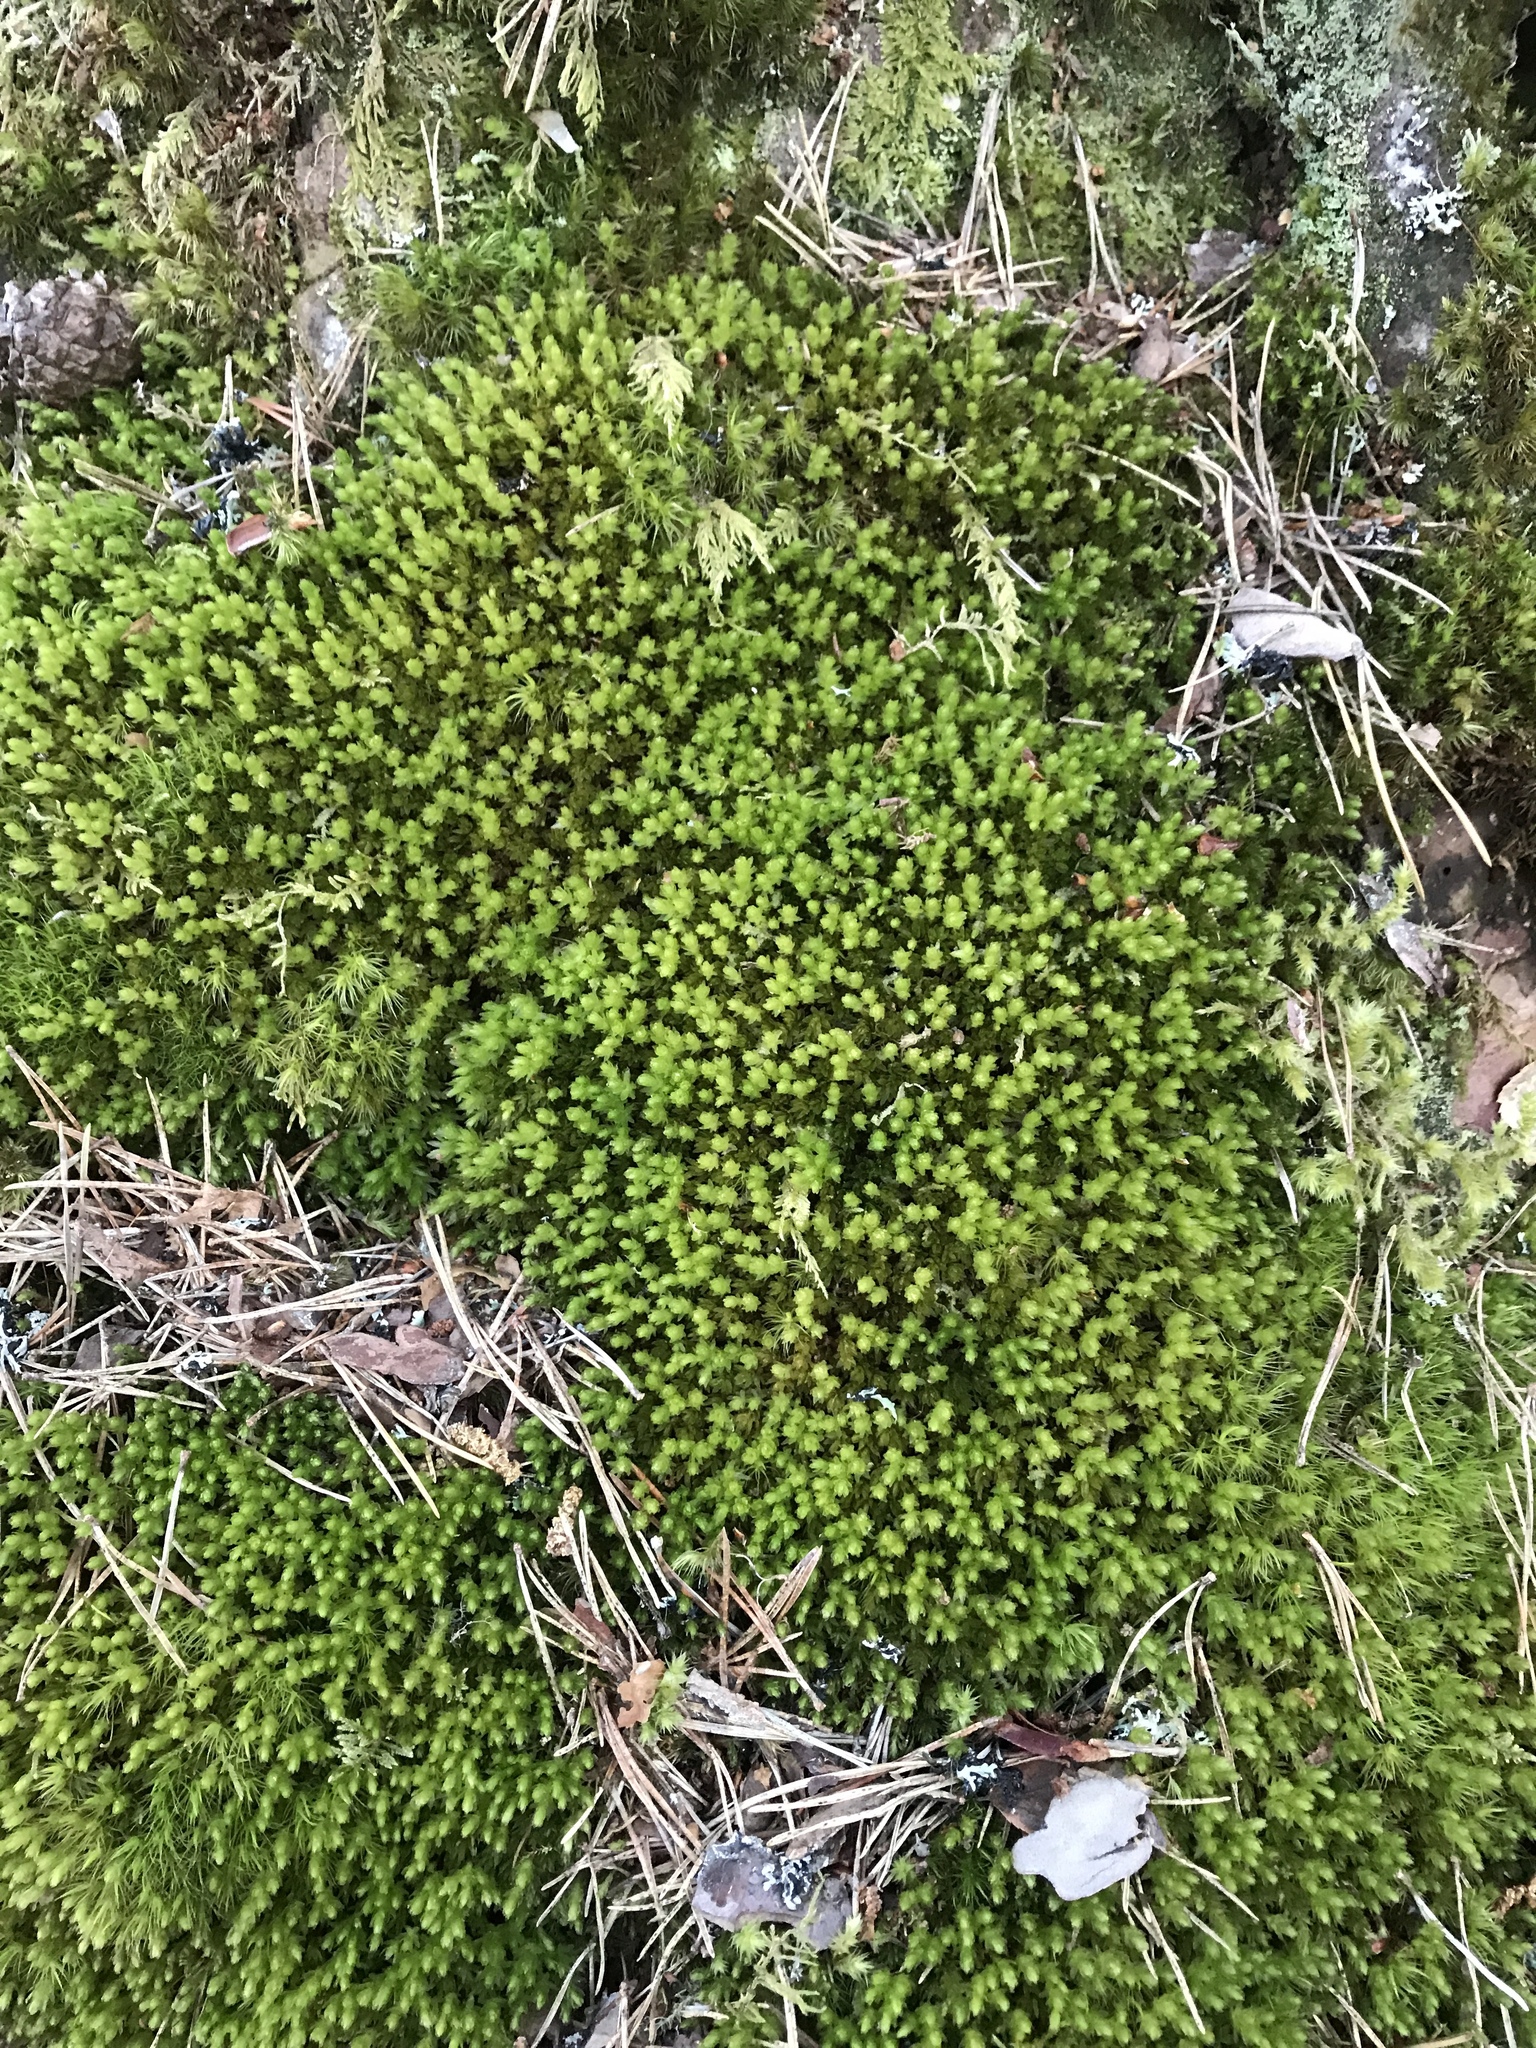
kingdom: Plantae
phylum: Bryophyta
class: Bryopsida
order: Bryales
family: Mniaceae
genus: Mnium
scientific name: Mnium hornum
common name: Swan's-neck leafy moss
